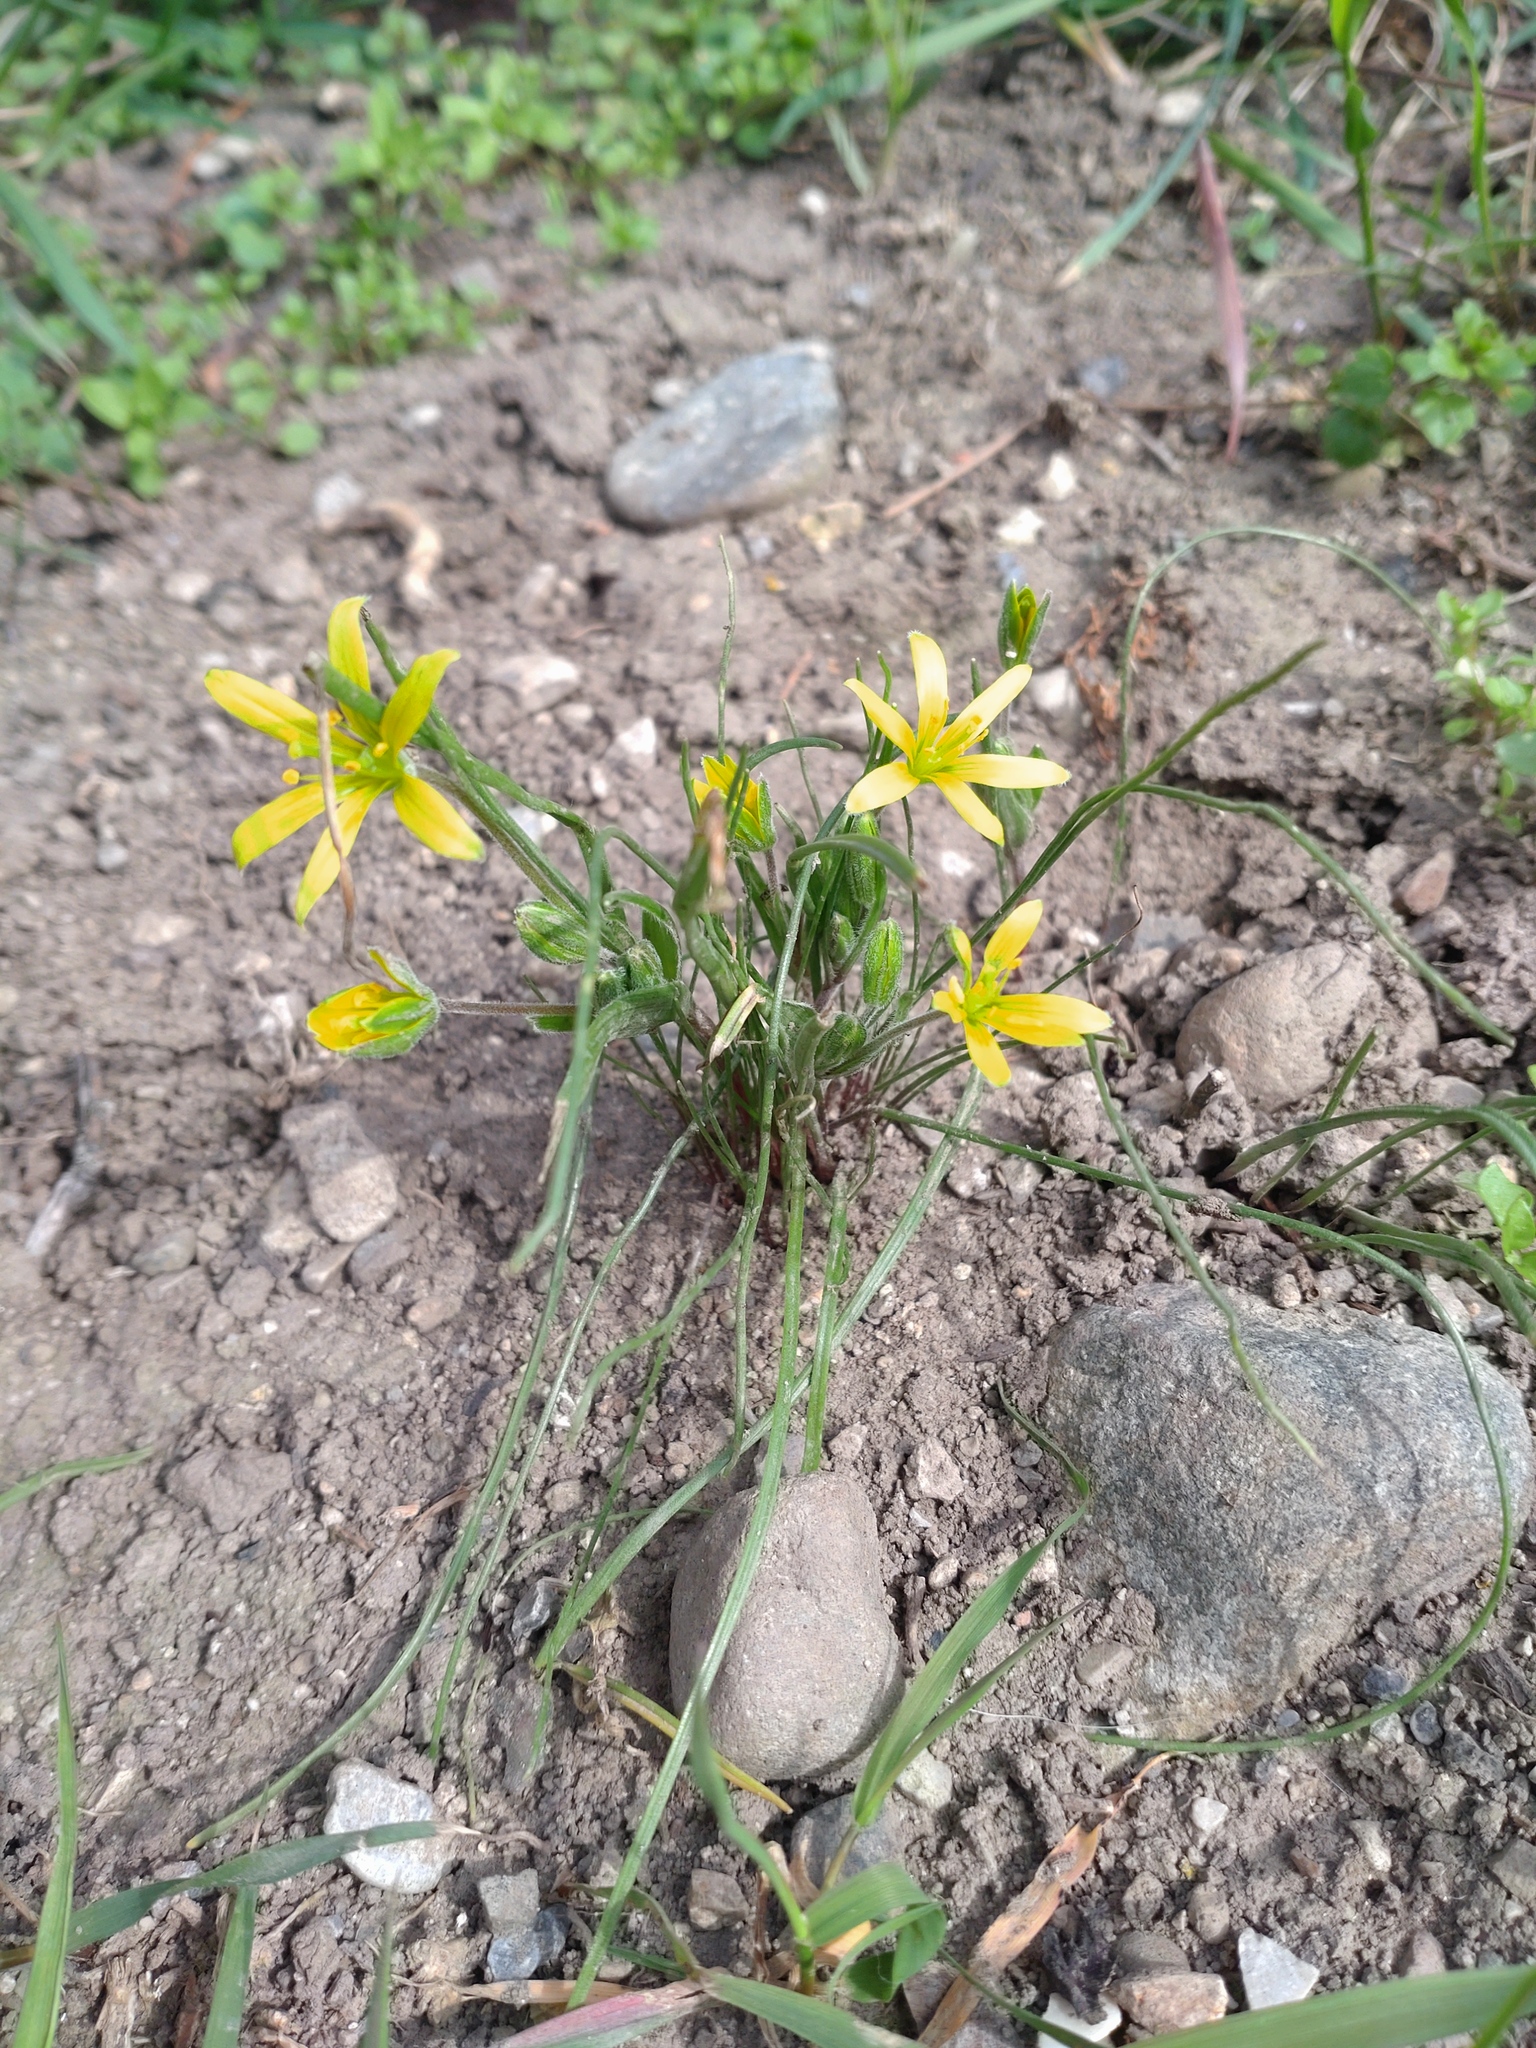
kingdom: Plantae
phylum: Tracheophyta
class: Liliopsida
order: Liliales
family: Liliaceae
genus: Gagea
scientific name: Gagea villosa
